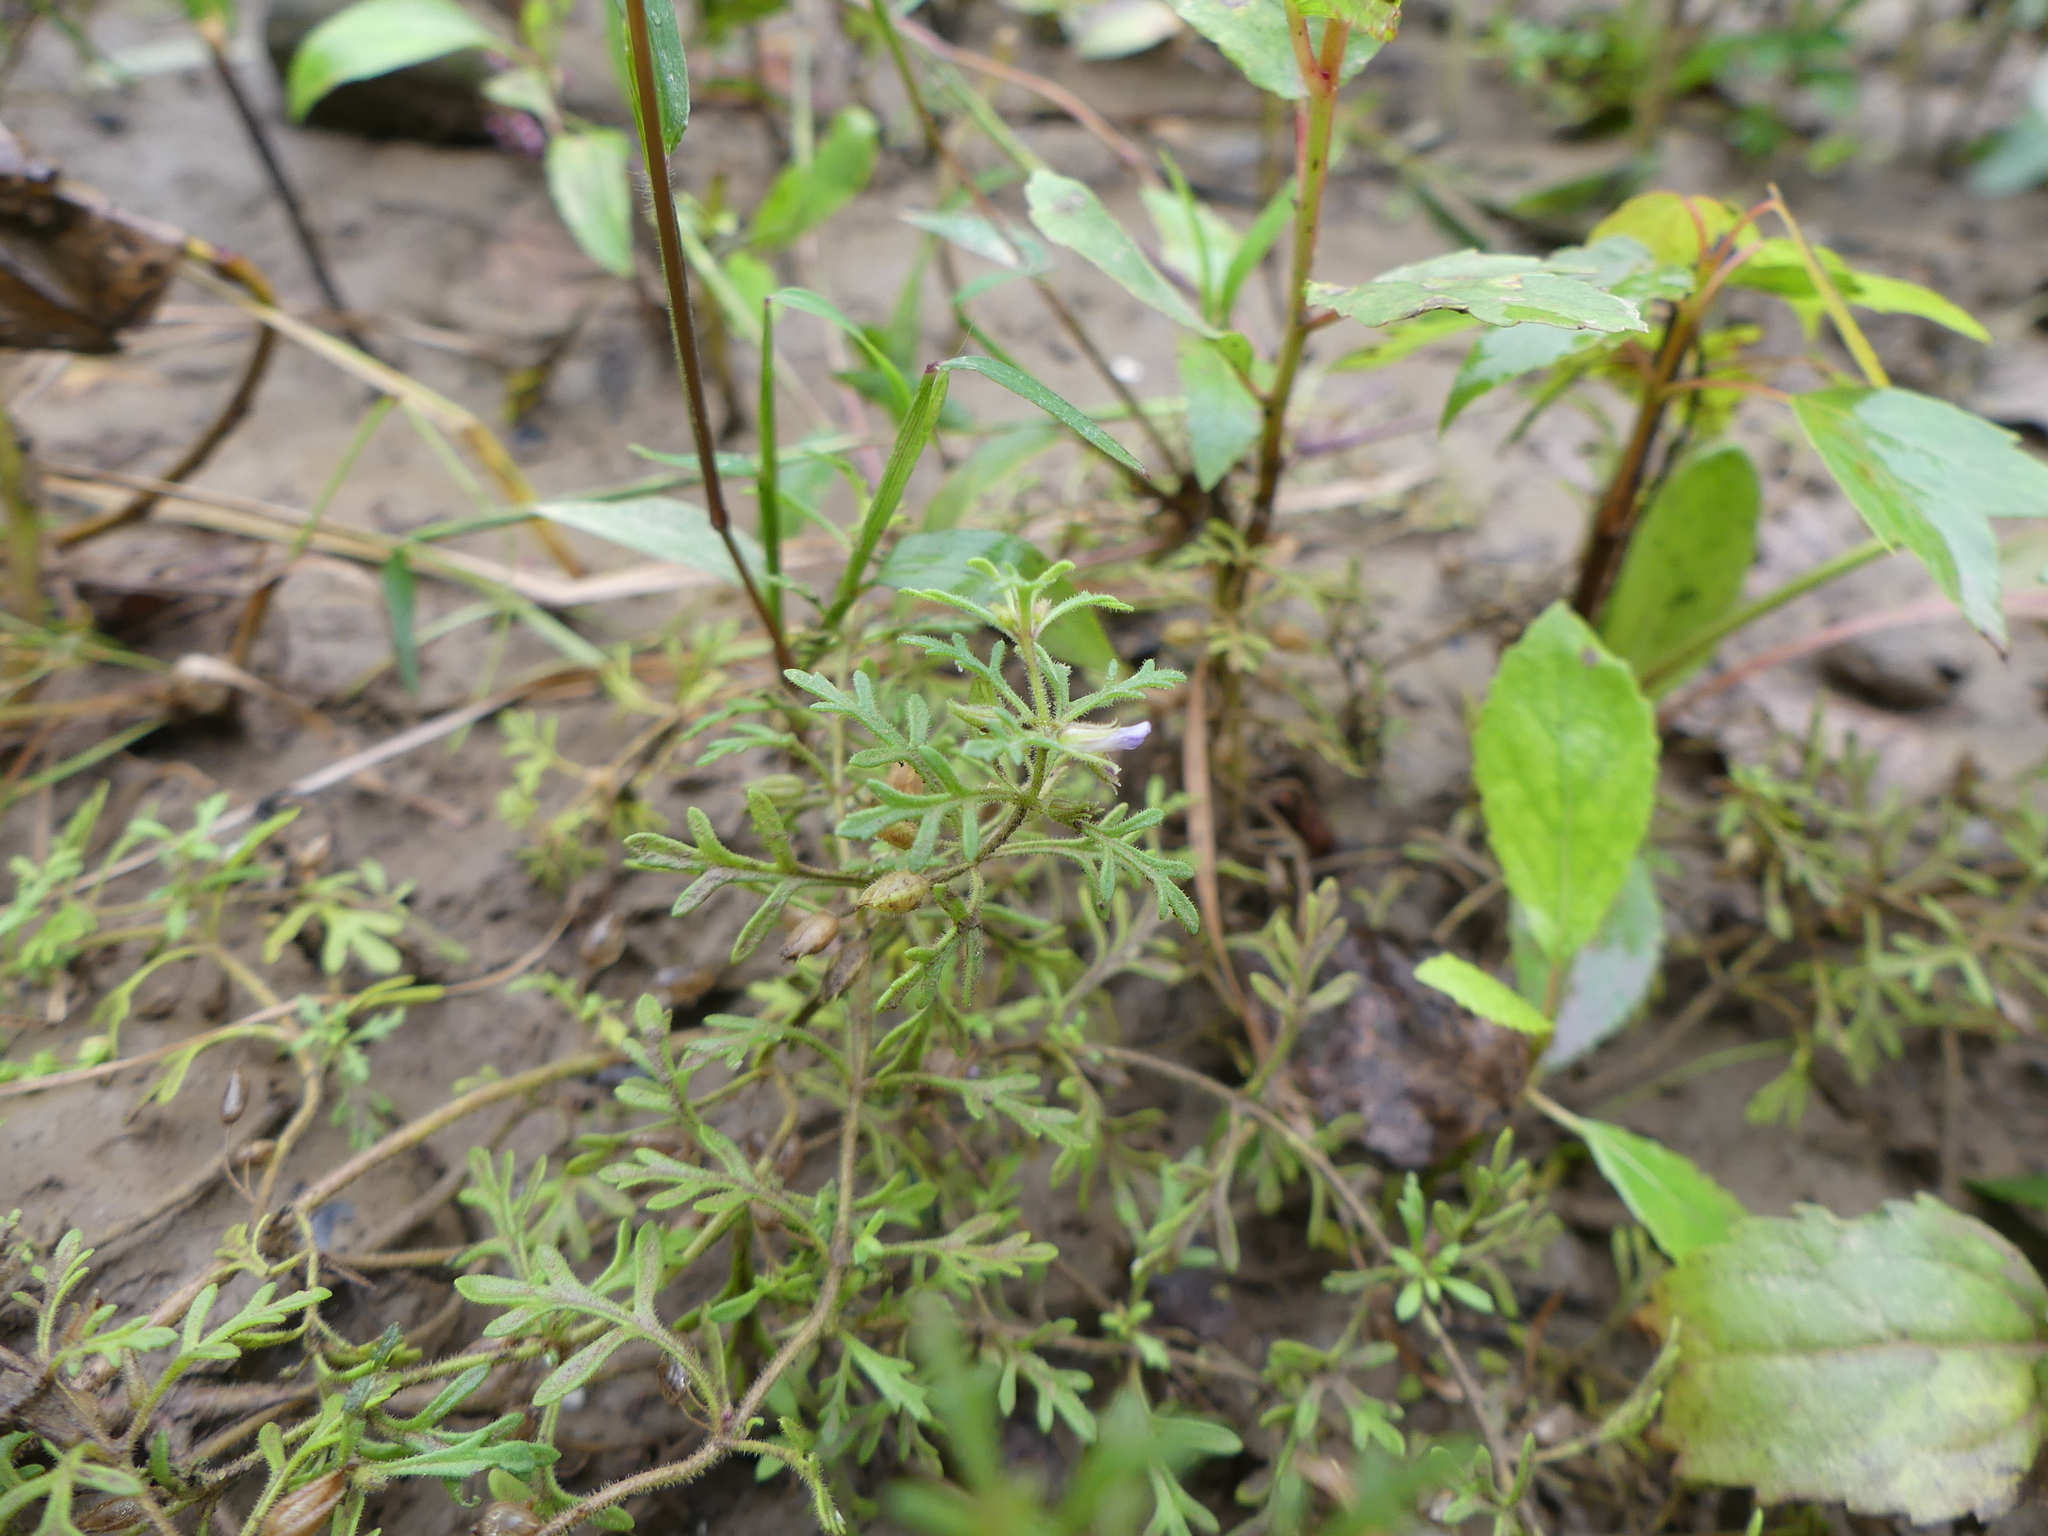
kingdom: Plantae
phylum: Tracheophyta
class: Magnoliopsida
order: Lamiales
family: Plantaginaceae
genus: Leucospora
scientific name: Leucospora multifida
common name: Narrow-leaf paleseed
